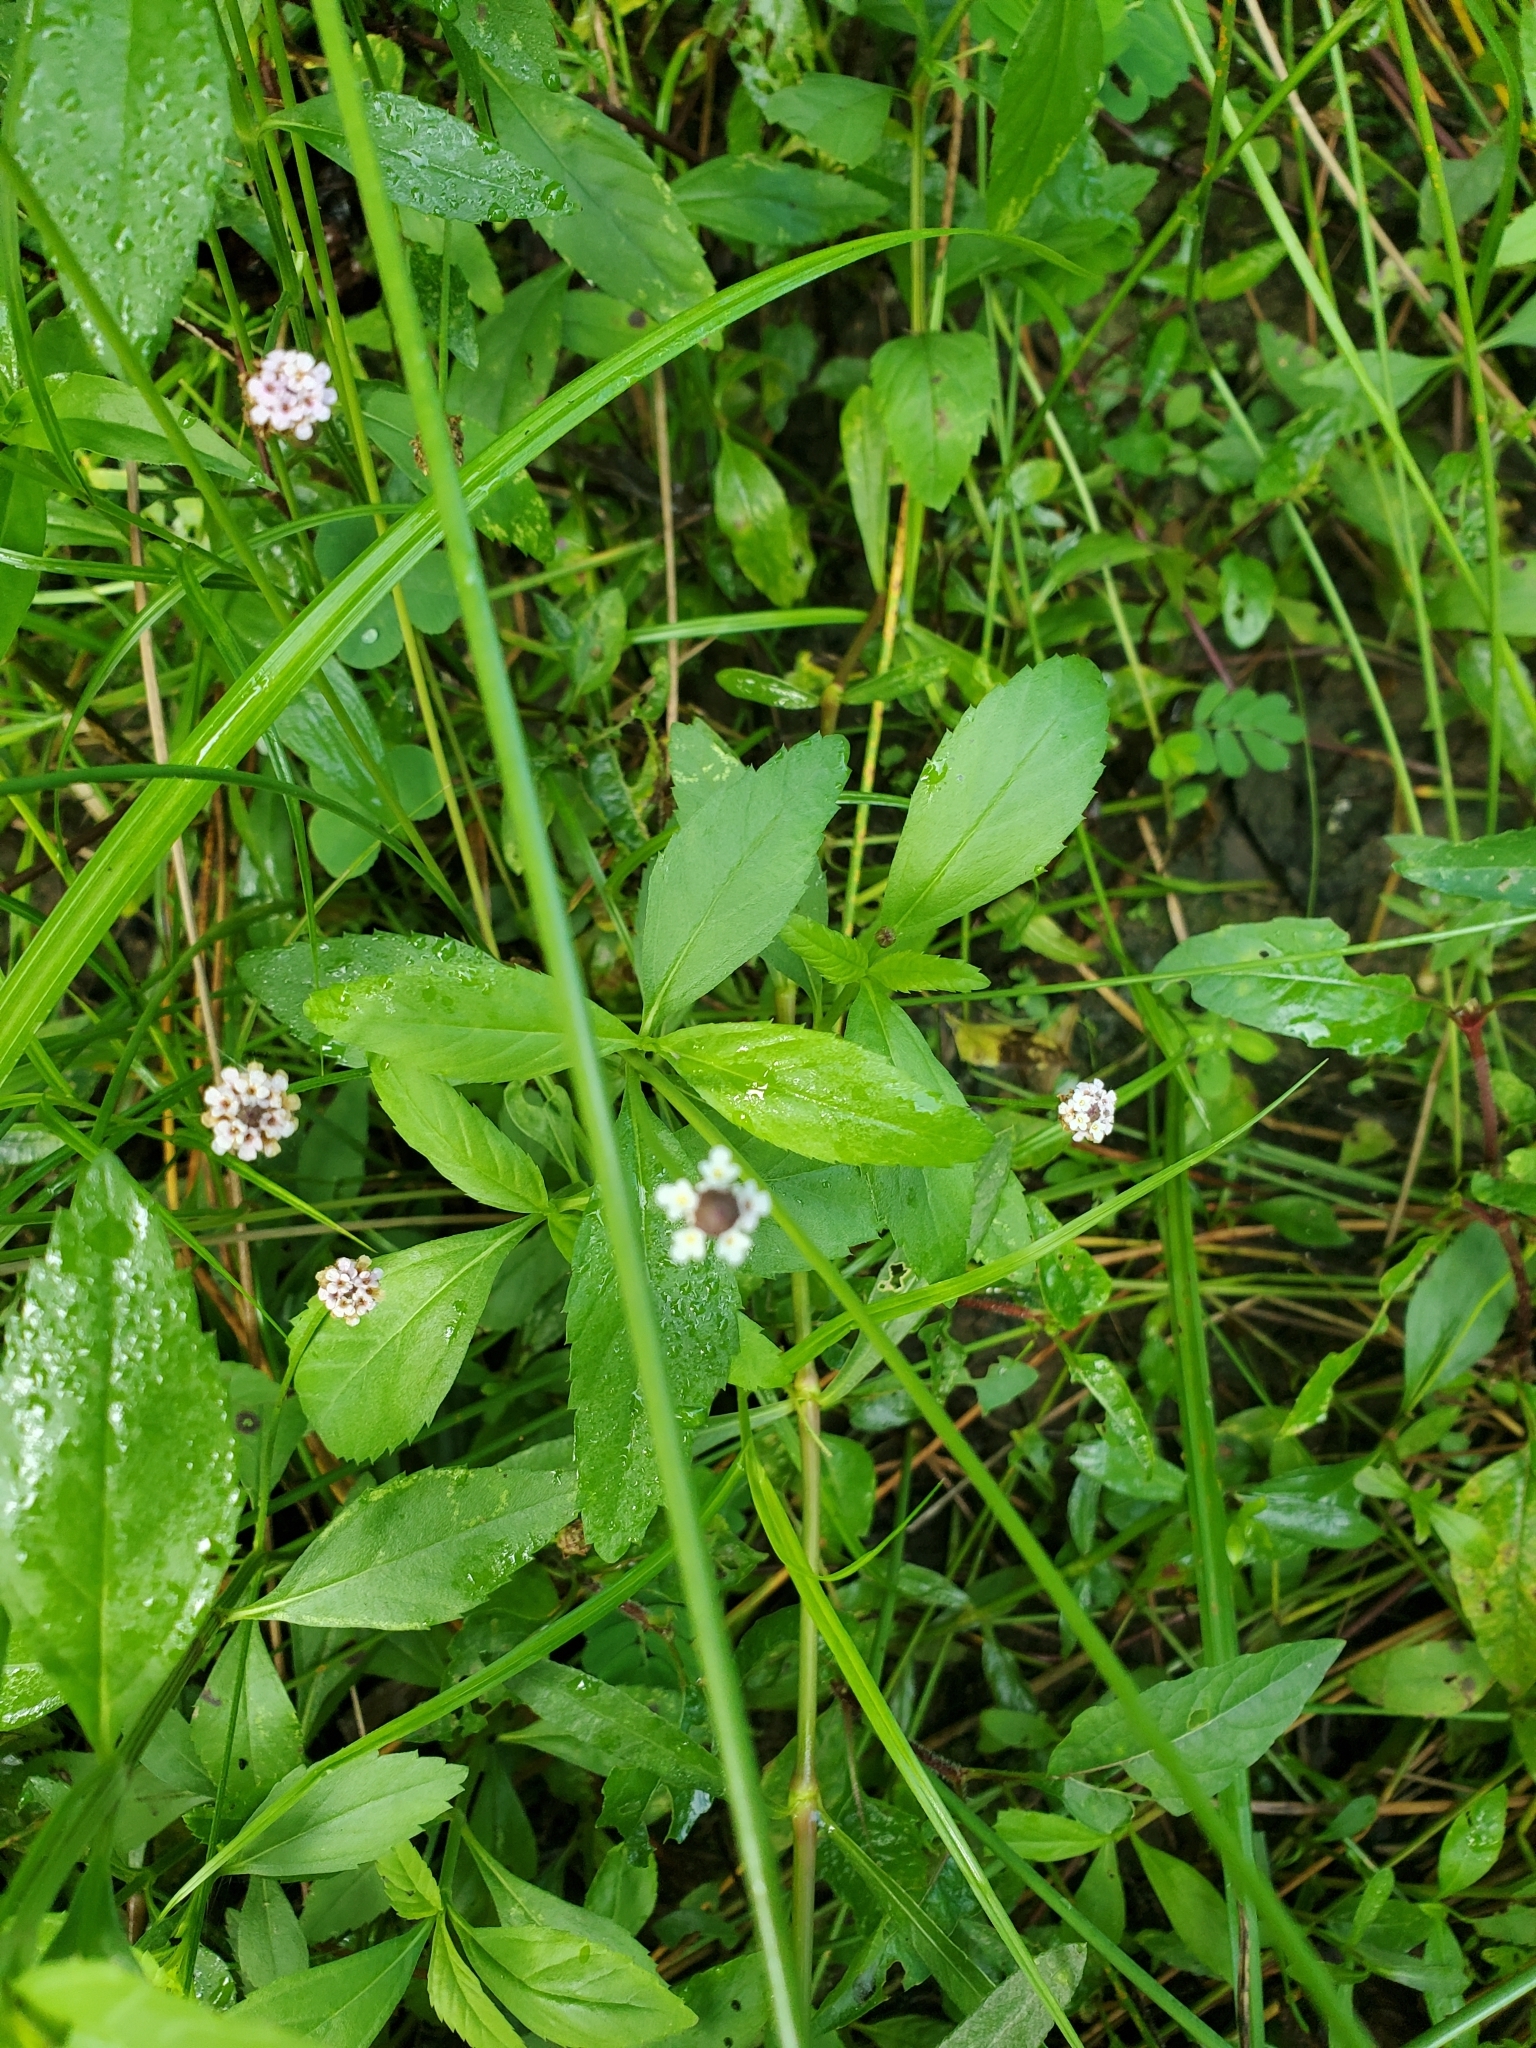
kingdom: Plantae
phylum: Tracheophyta
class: Magnoliopsida
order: Lamiales
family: Verbenaceae
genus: Phyla
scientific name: Phyla lanceolata
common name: Northern fogfruit
